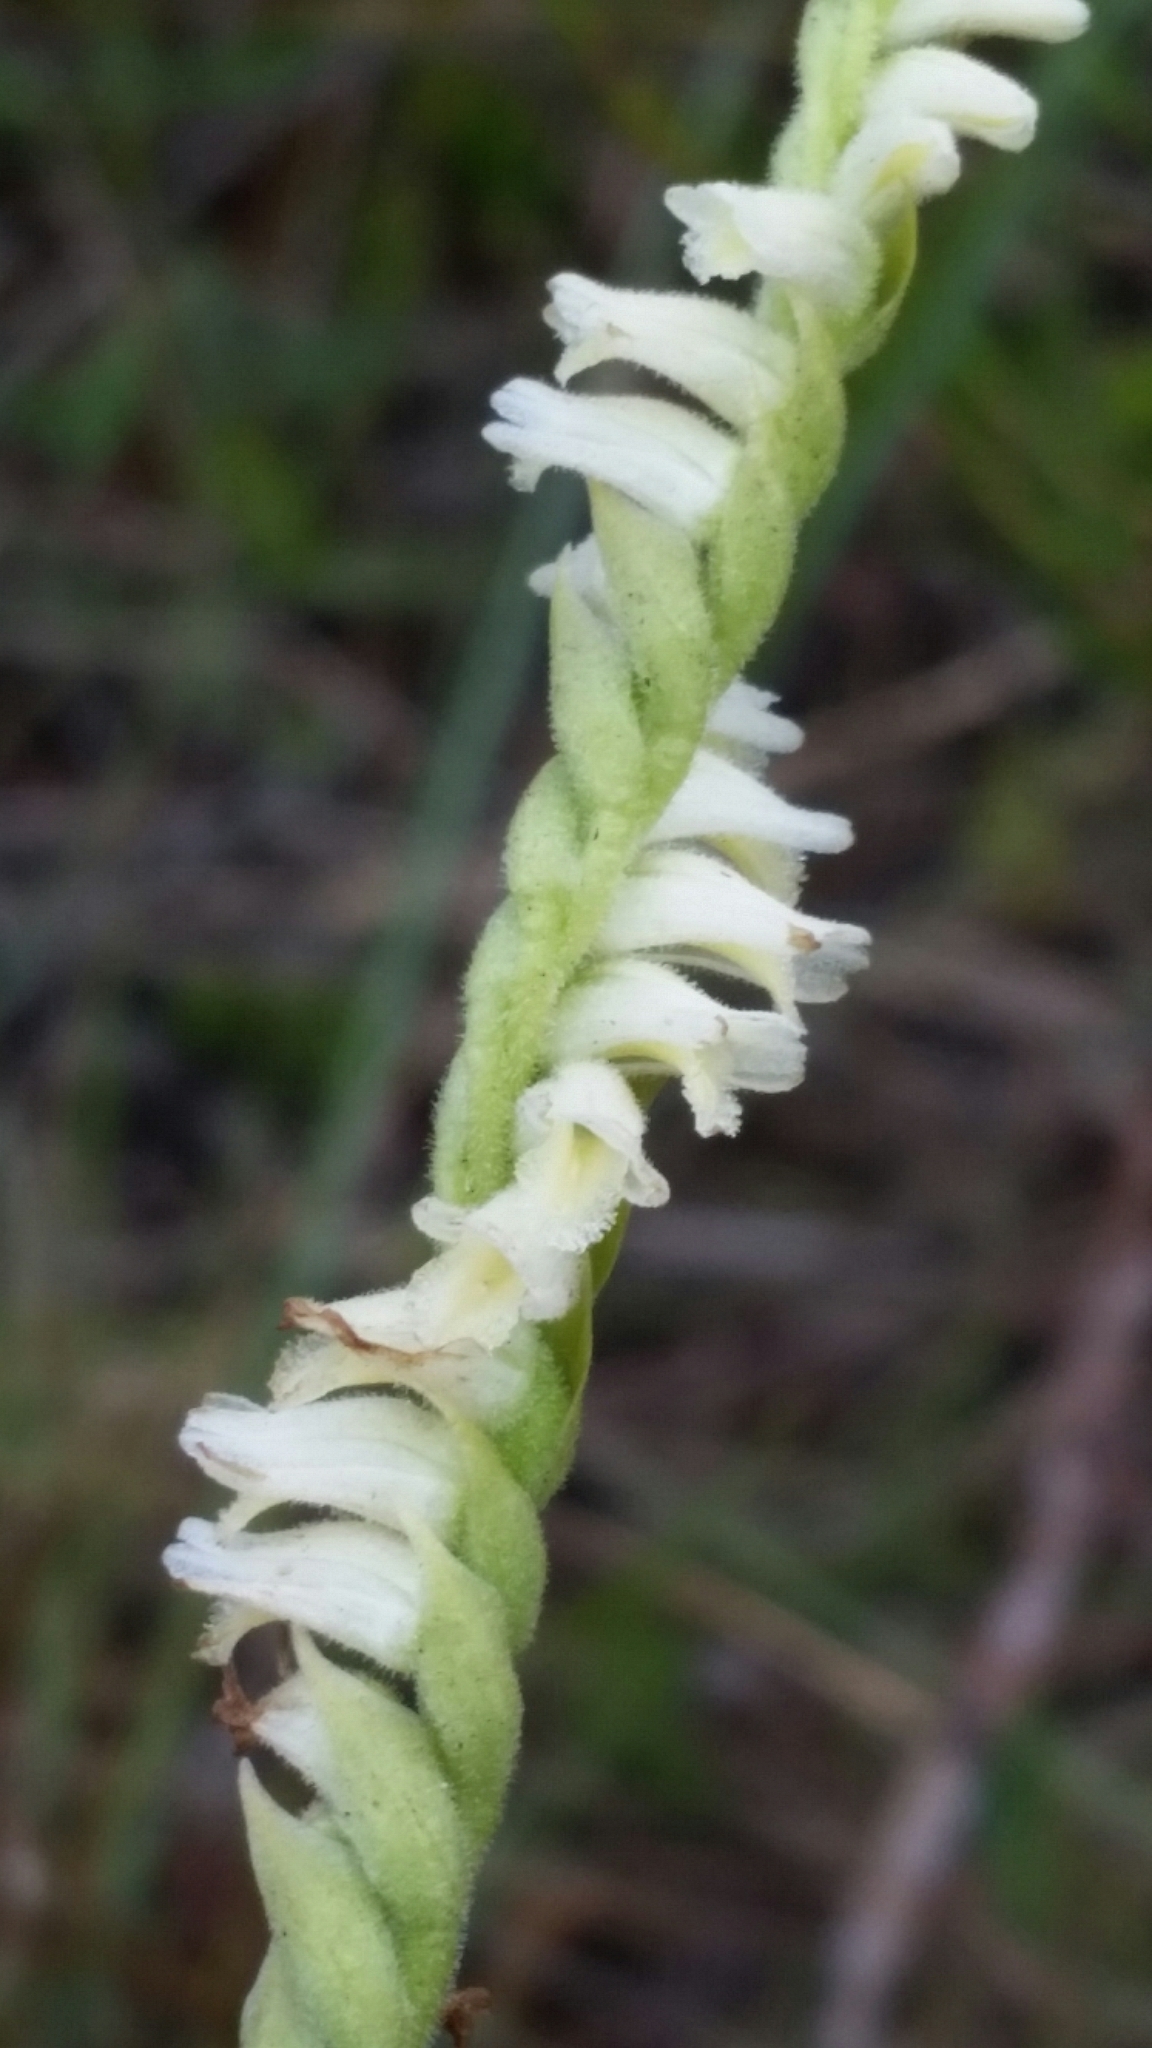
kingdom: Plantae
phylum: Tracheophyta
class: Liliopsida
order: Asparagales
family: Orchidaceae
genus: Spiranthes
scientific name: Spiranthes laciniata
